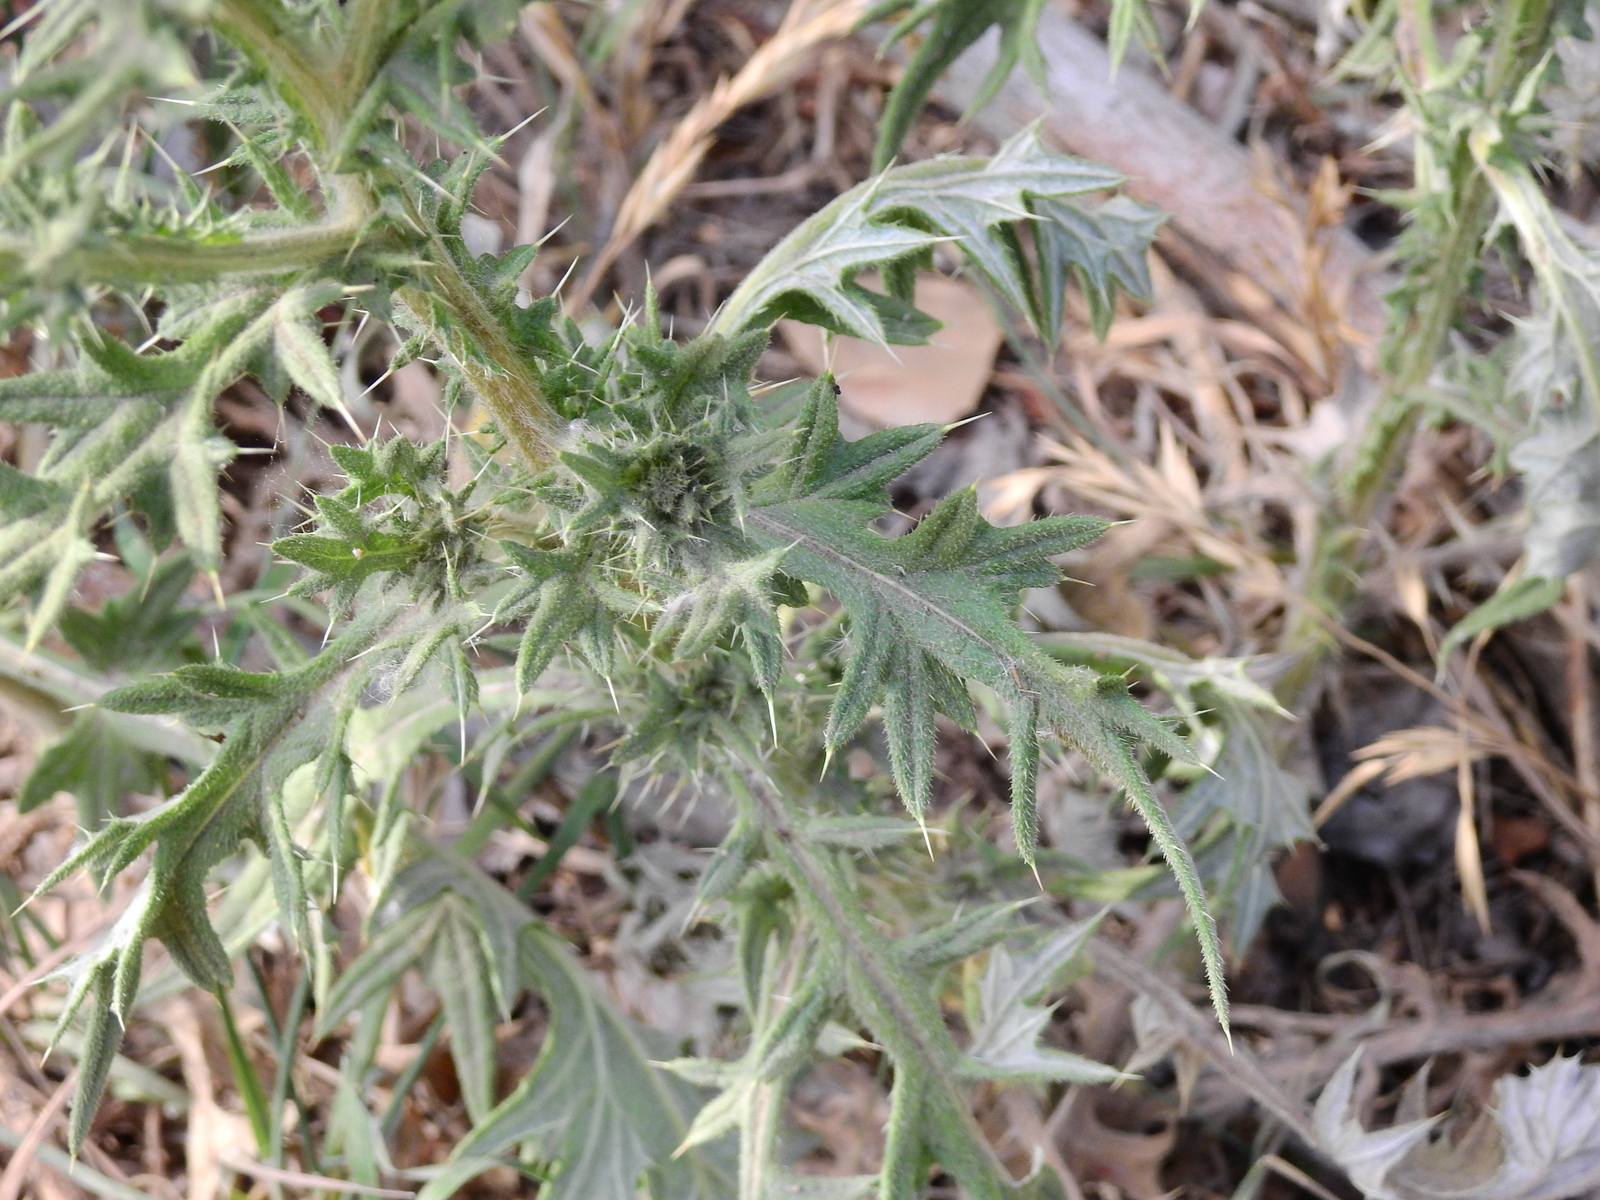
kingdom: Plantae
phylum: Tracheophyta
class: Magnoliopsida
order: Asterales
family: Asteraceae
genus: Cirsium
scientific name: Cirsium vulgare
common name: Bull thistle
